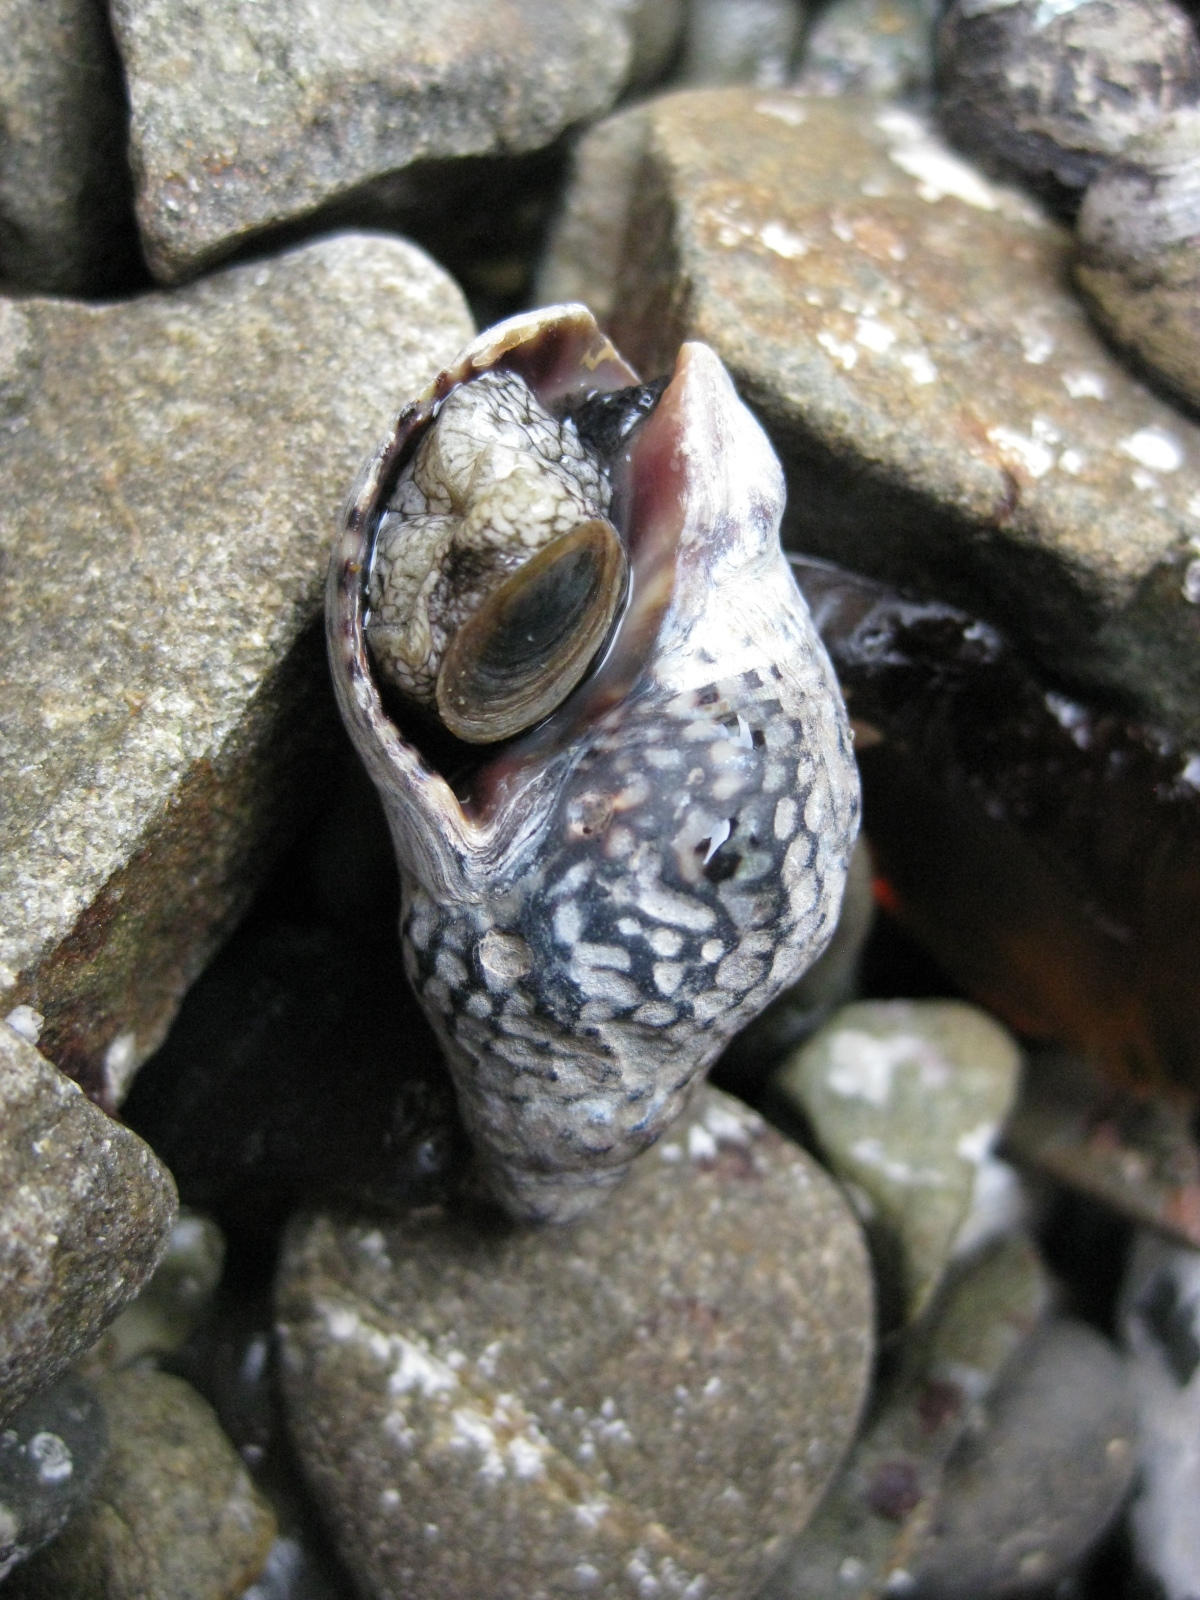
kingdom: Animalia
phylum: Mollusca
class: Gastropoda
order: Neogastropoda
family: Cominellidae
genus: Cominella
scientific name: Cominella maculosa
